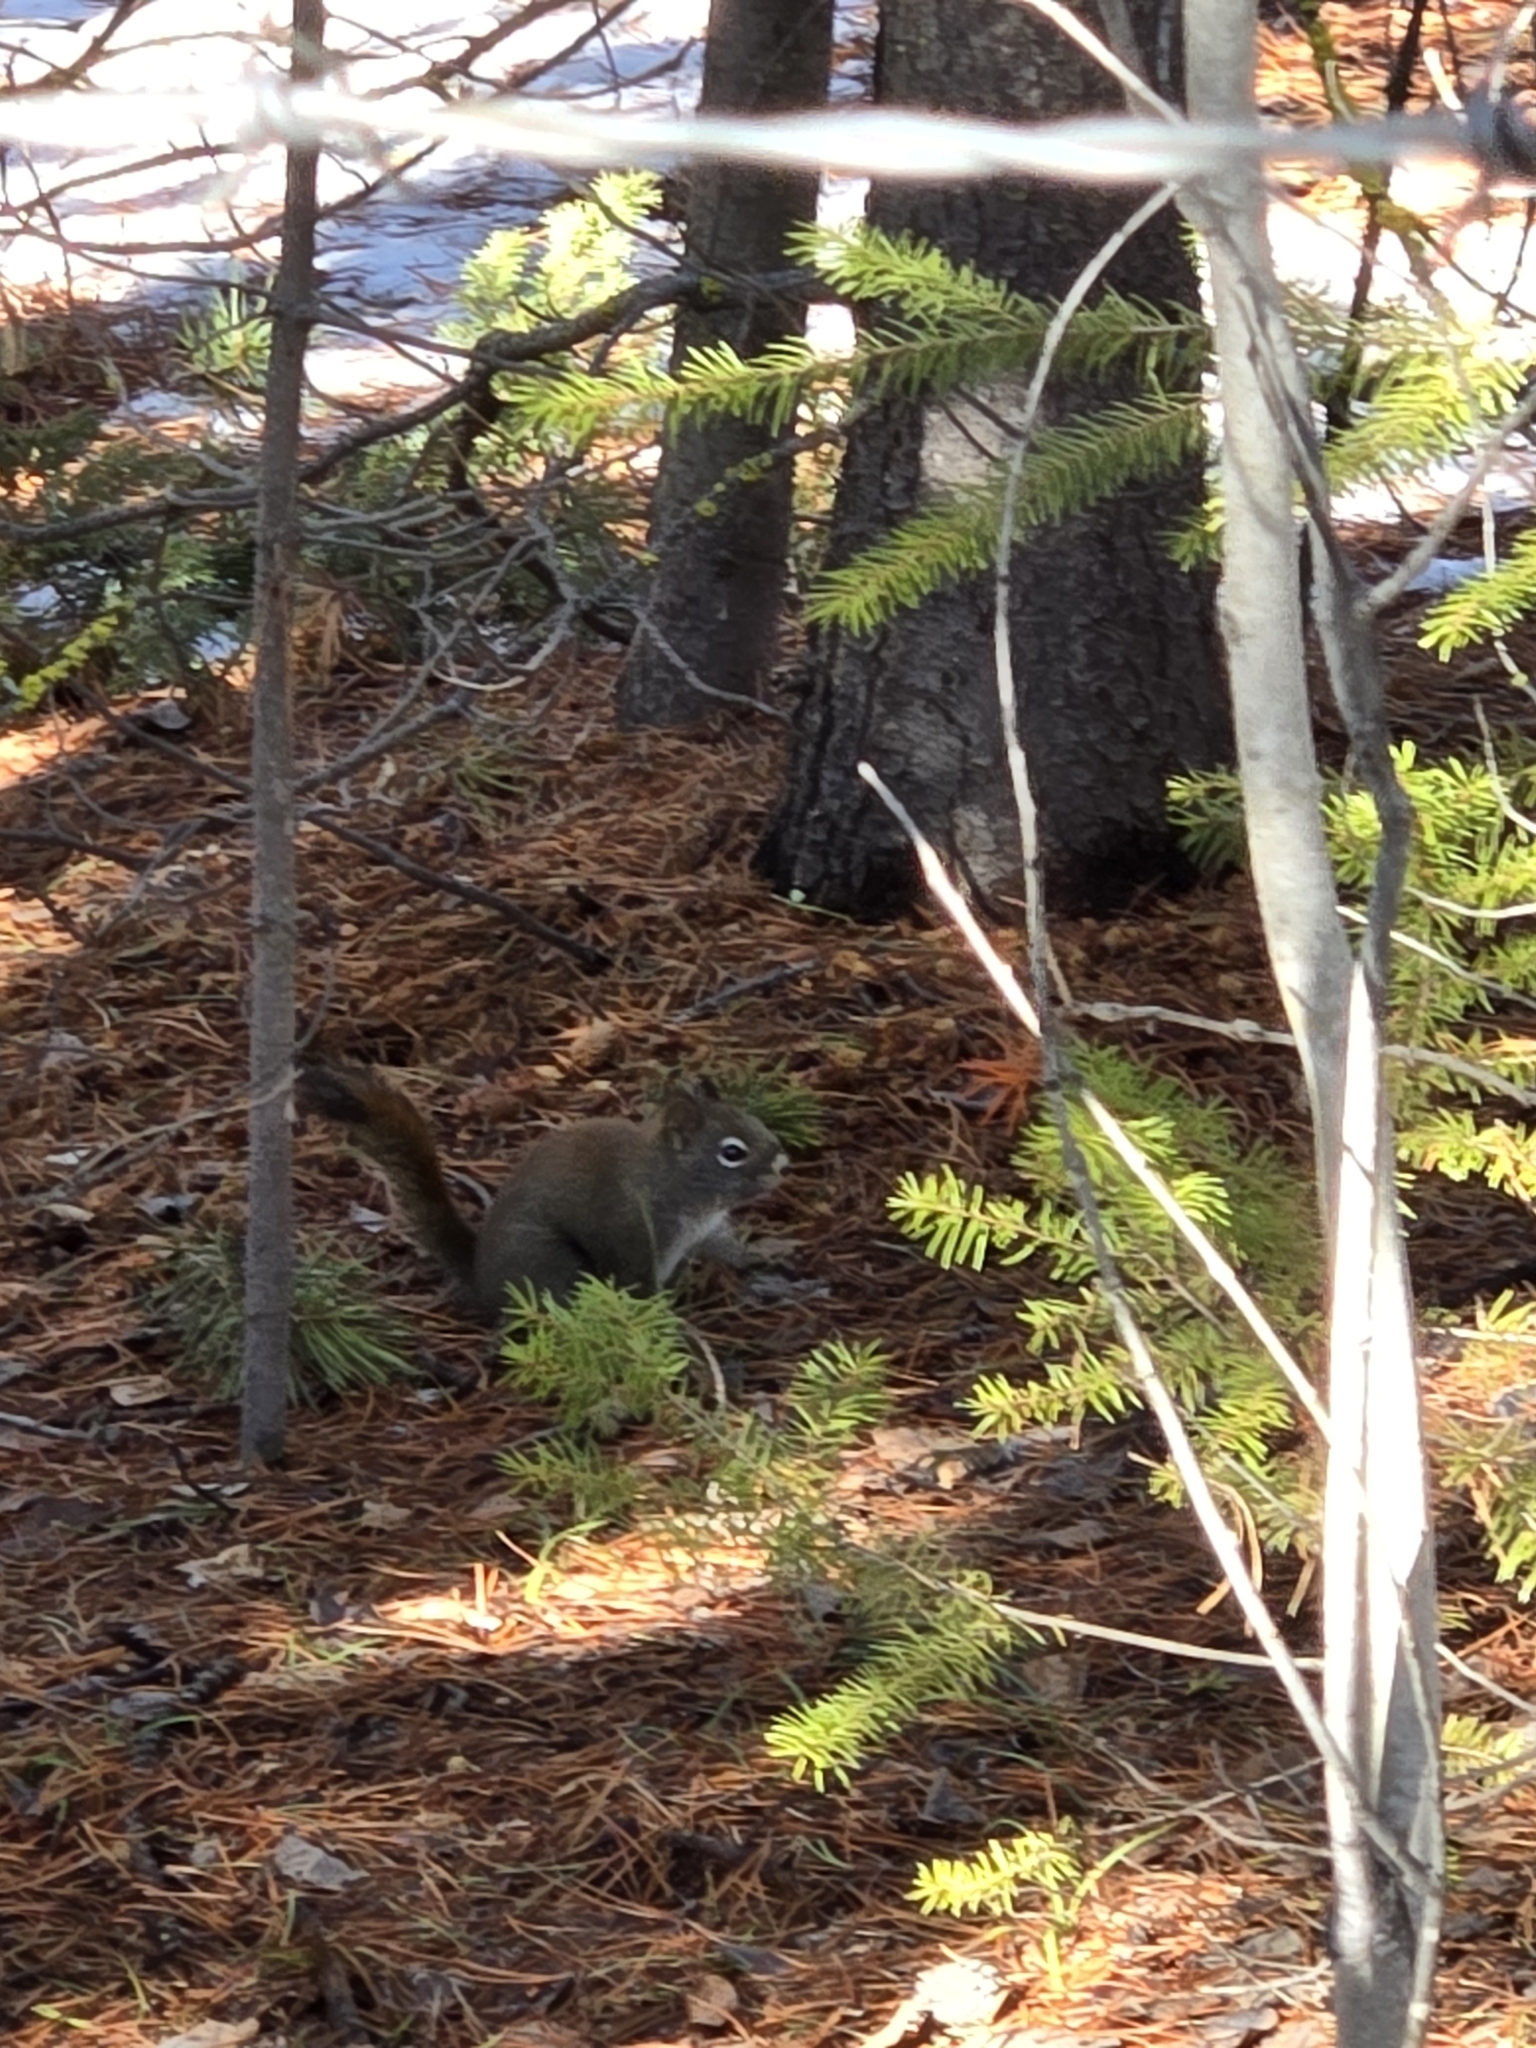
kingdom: Animalia
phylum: Chordata
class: Mammalia
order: Rodentia
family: Sciuridae
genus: Tamiasciurus
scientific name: Tamiasciurus hudsonicus
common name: Red squirrel
